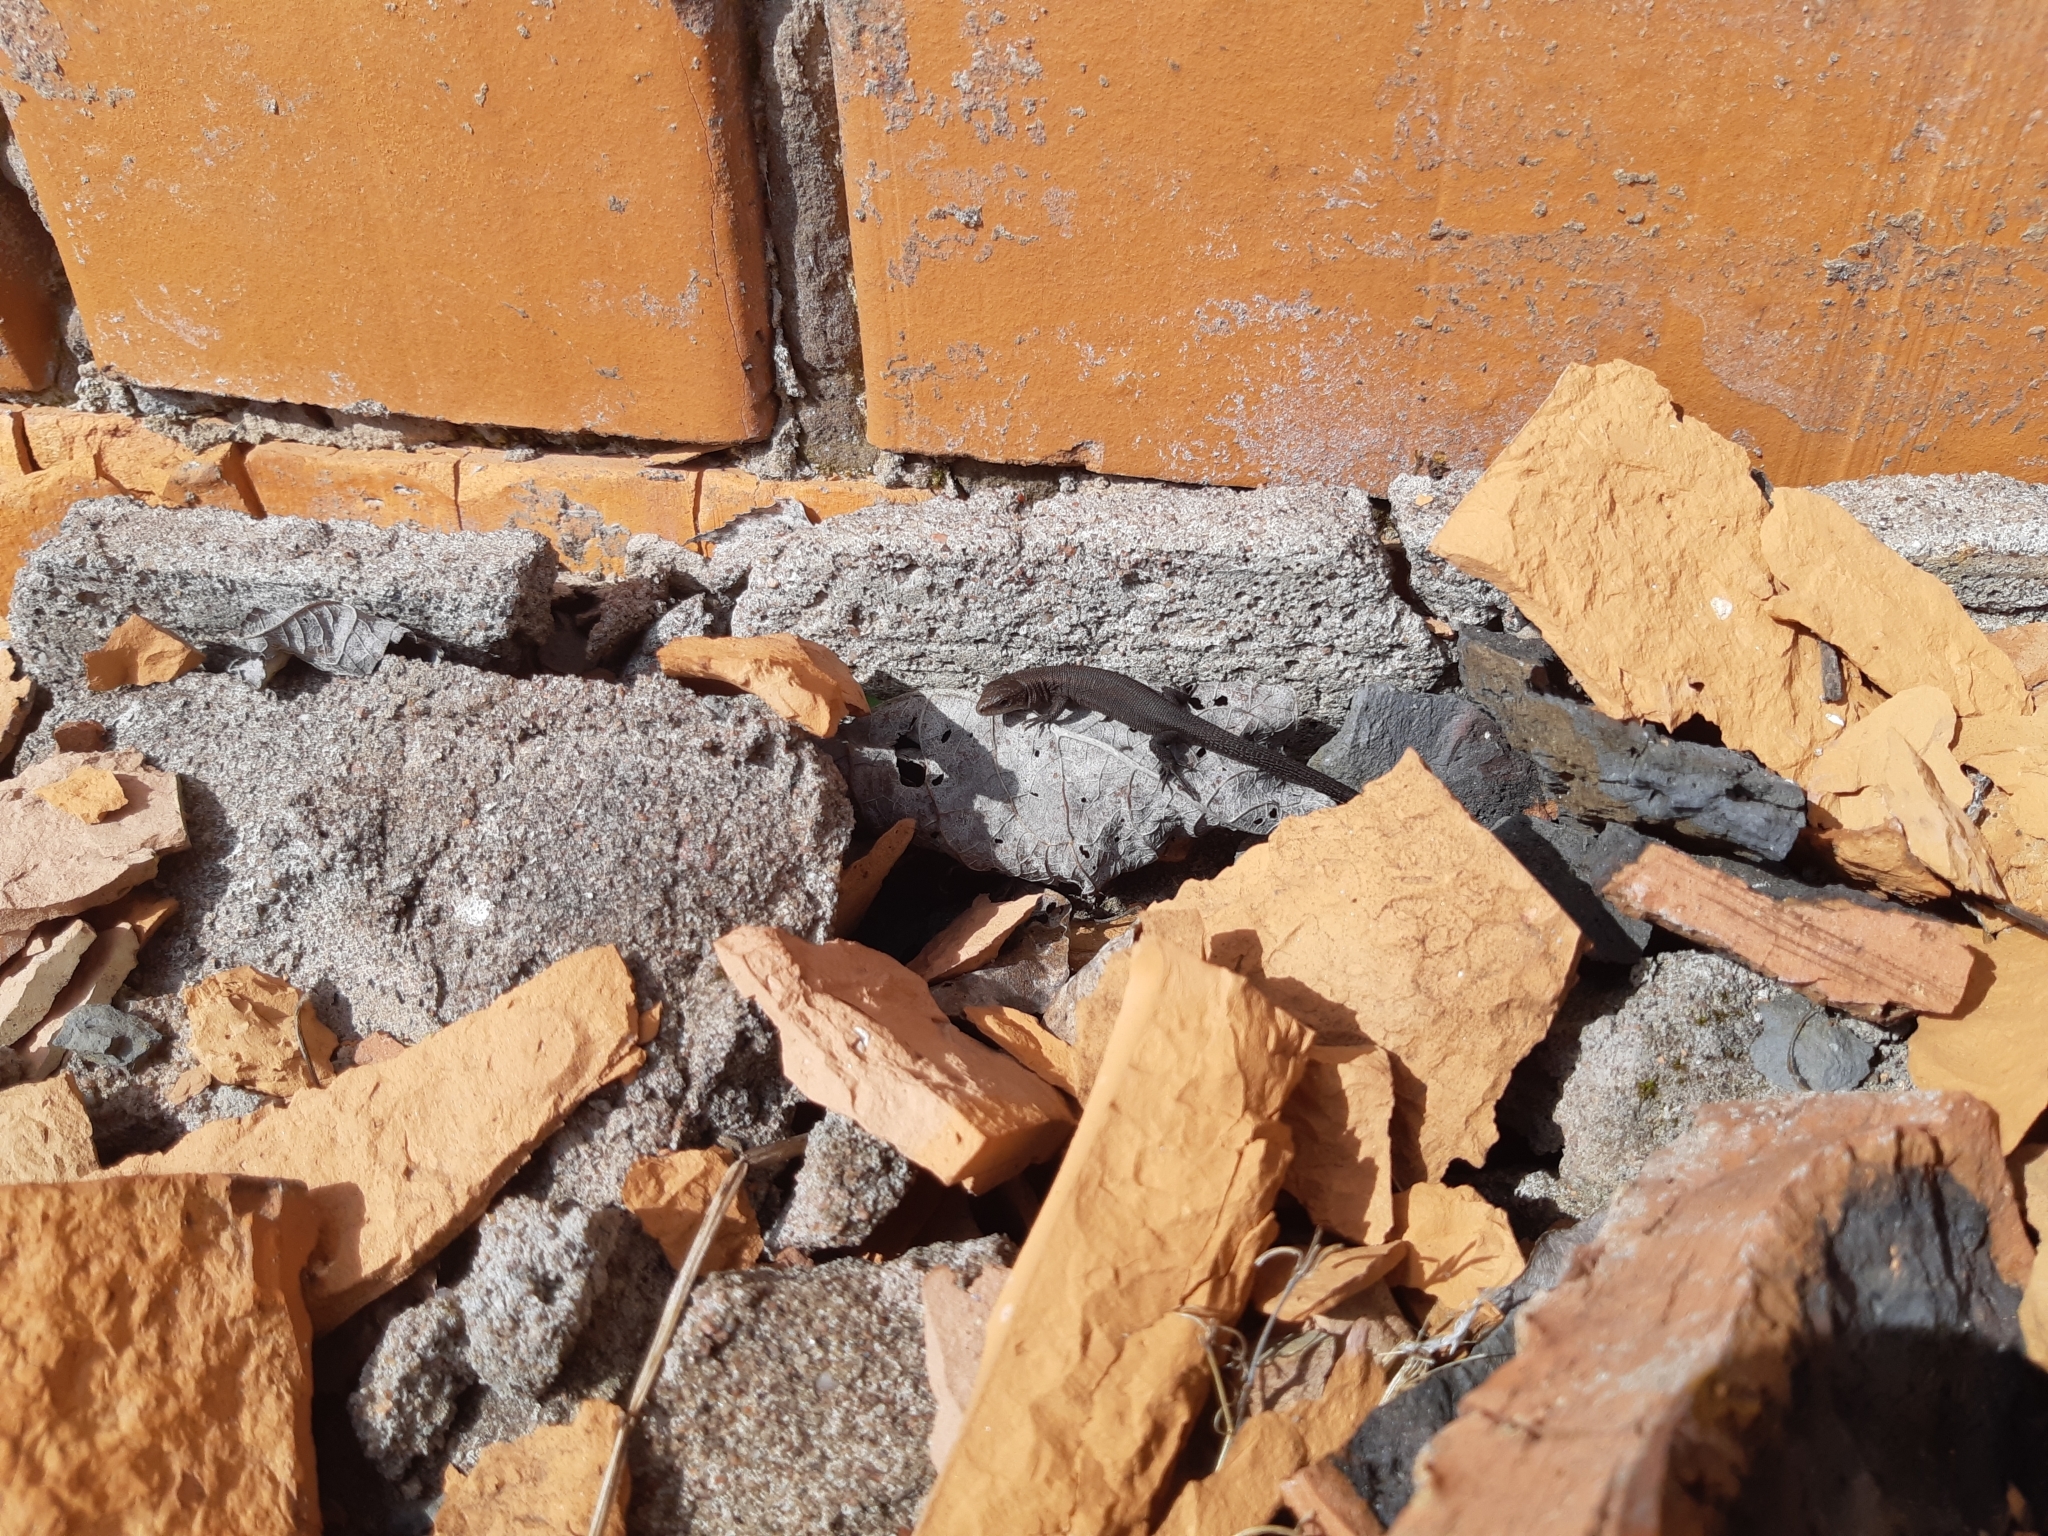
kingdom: Animalia
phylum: Chordata
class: Squamata
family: Lacertidae
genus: Zootoca
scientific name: Zootoca vivipara
